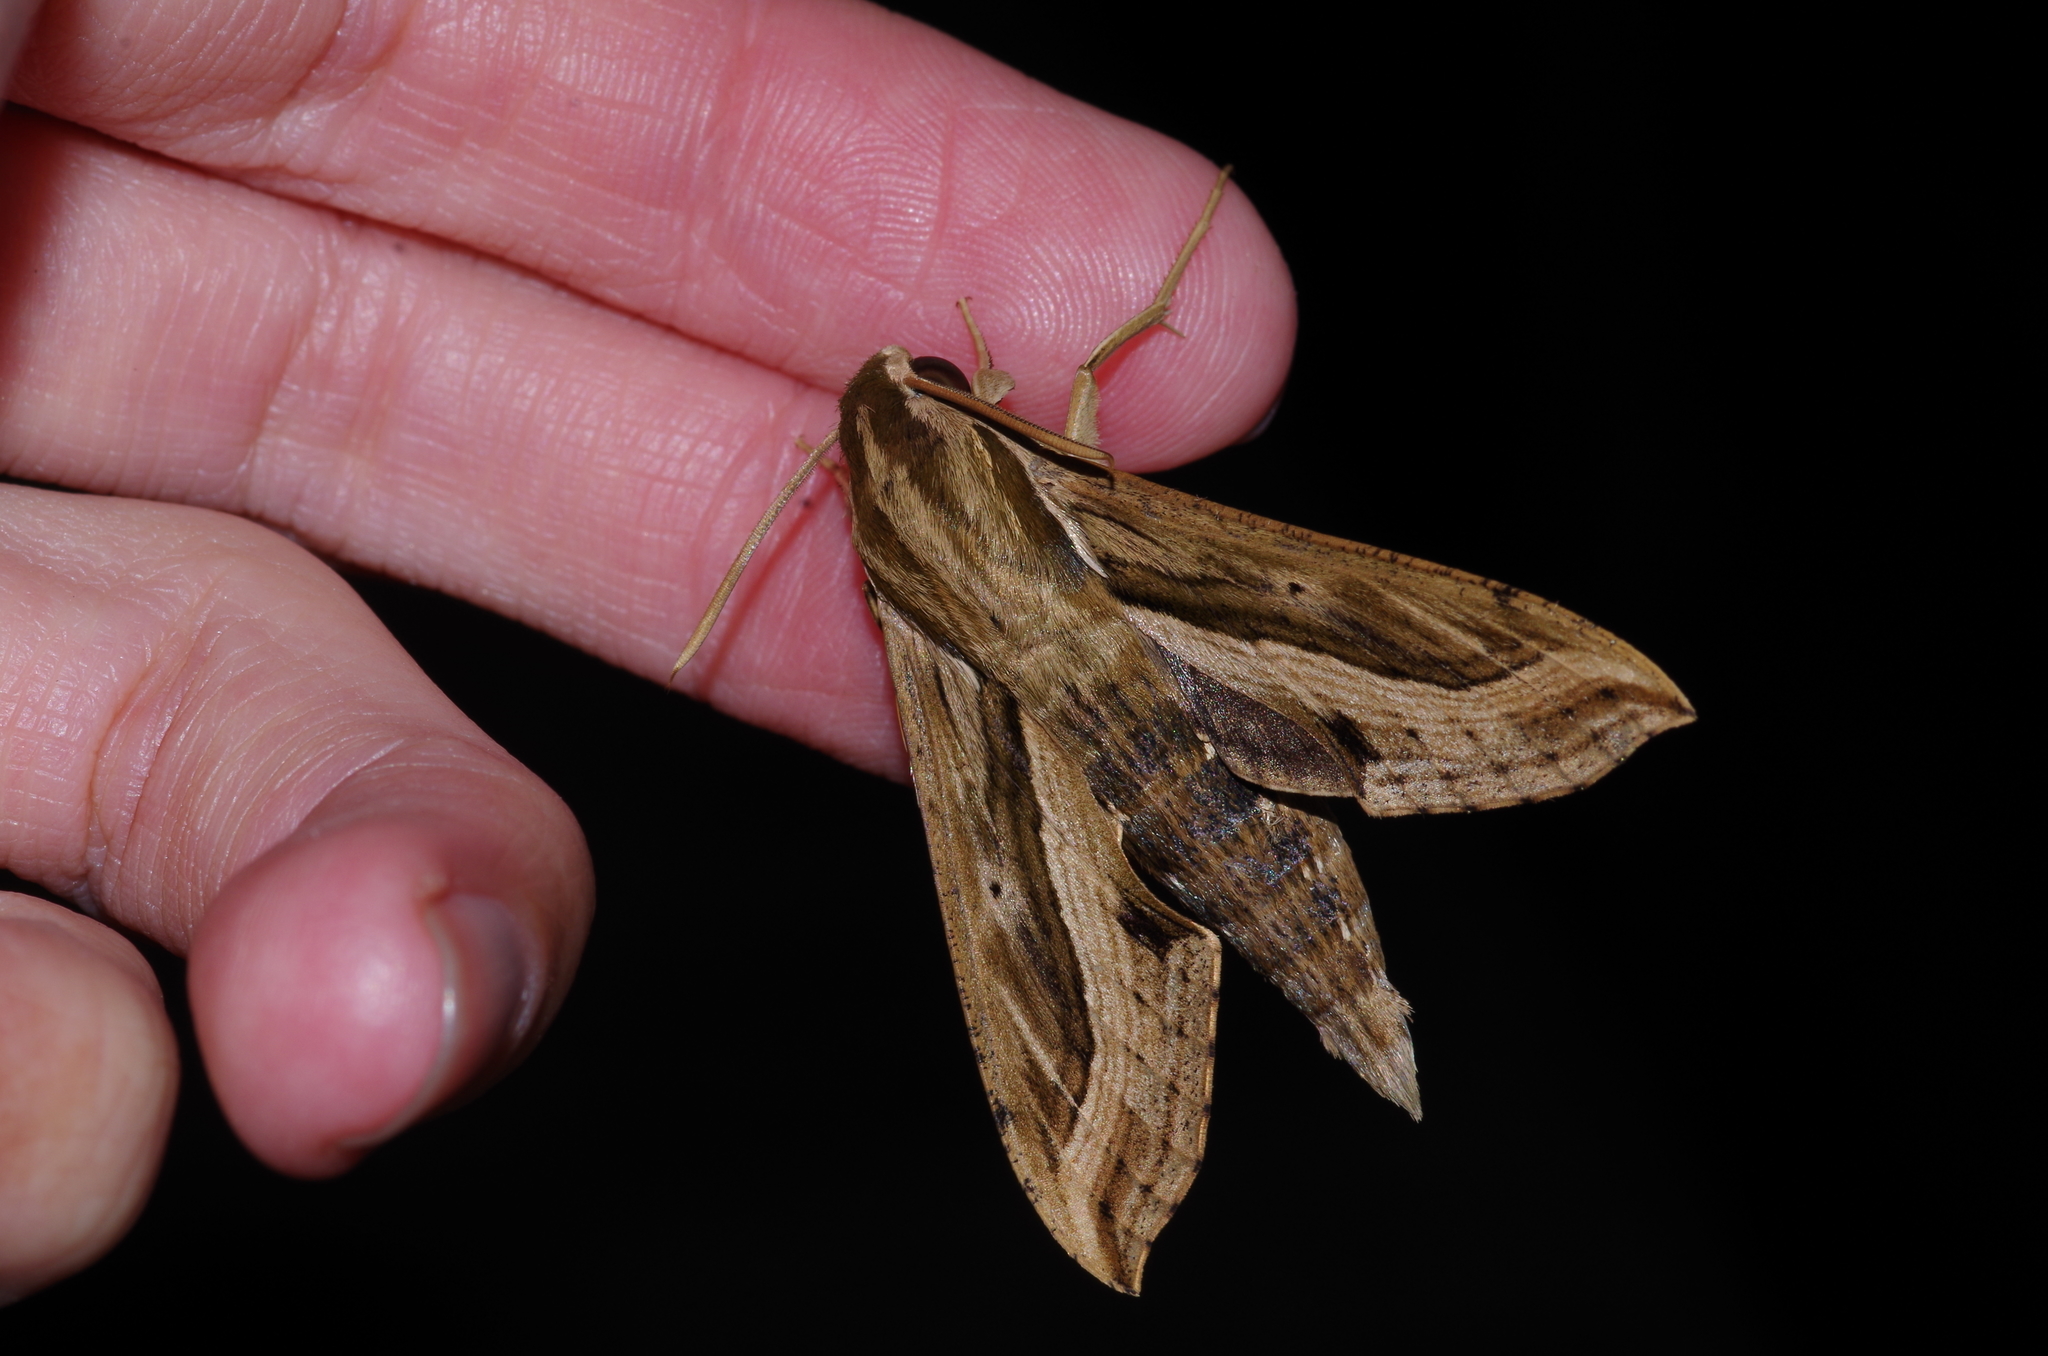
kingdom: Animalia
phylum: Arthropoda
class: Insecta
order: Lepidoptera
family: Sphingidae
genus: Hippotion
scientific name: Hippotion velox
